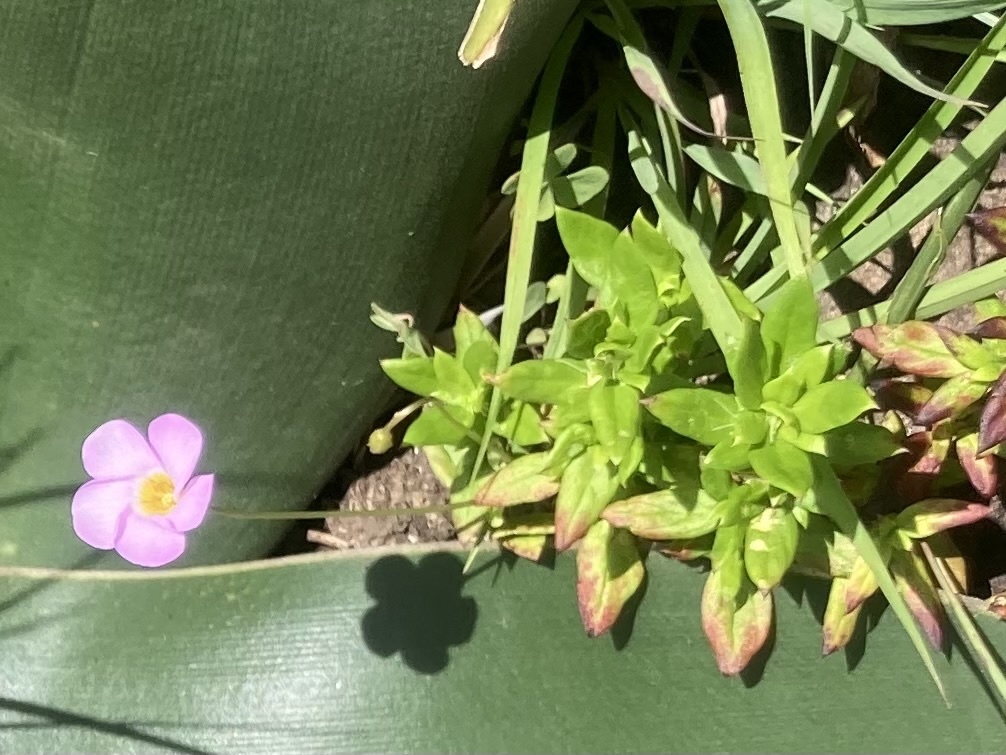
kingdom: Plantae
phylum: Tracheophyta
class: Magnoliopsida
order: Oxalidales
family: Oxalidaceae
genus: Oxalis
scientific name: Oxalis obliquifolia
